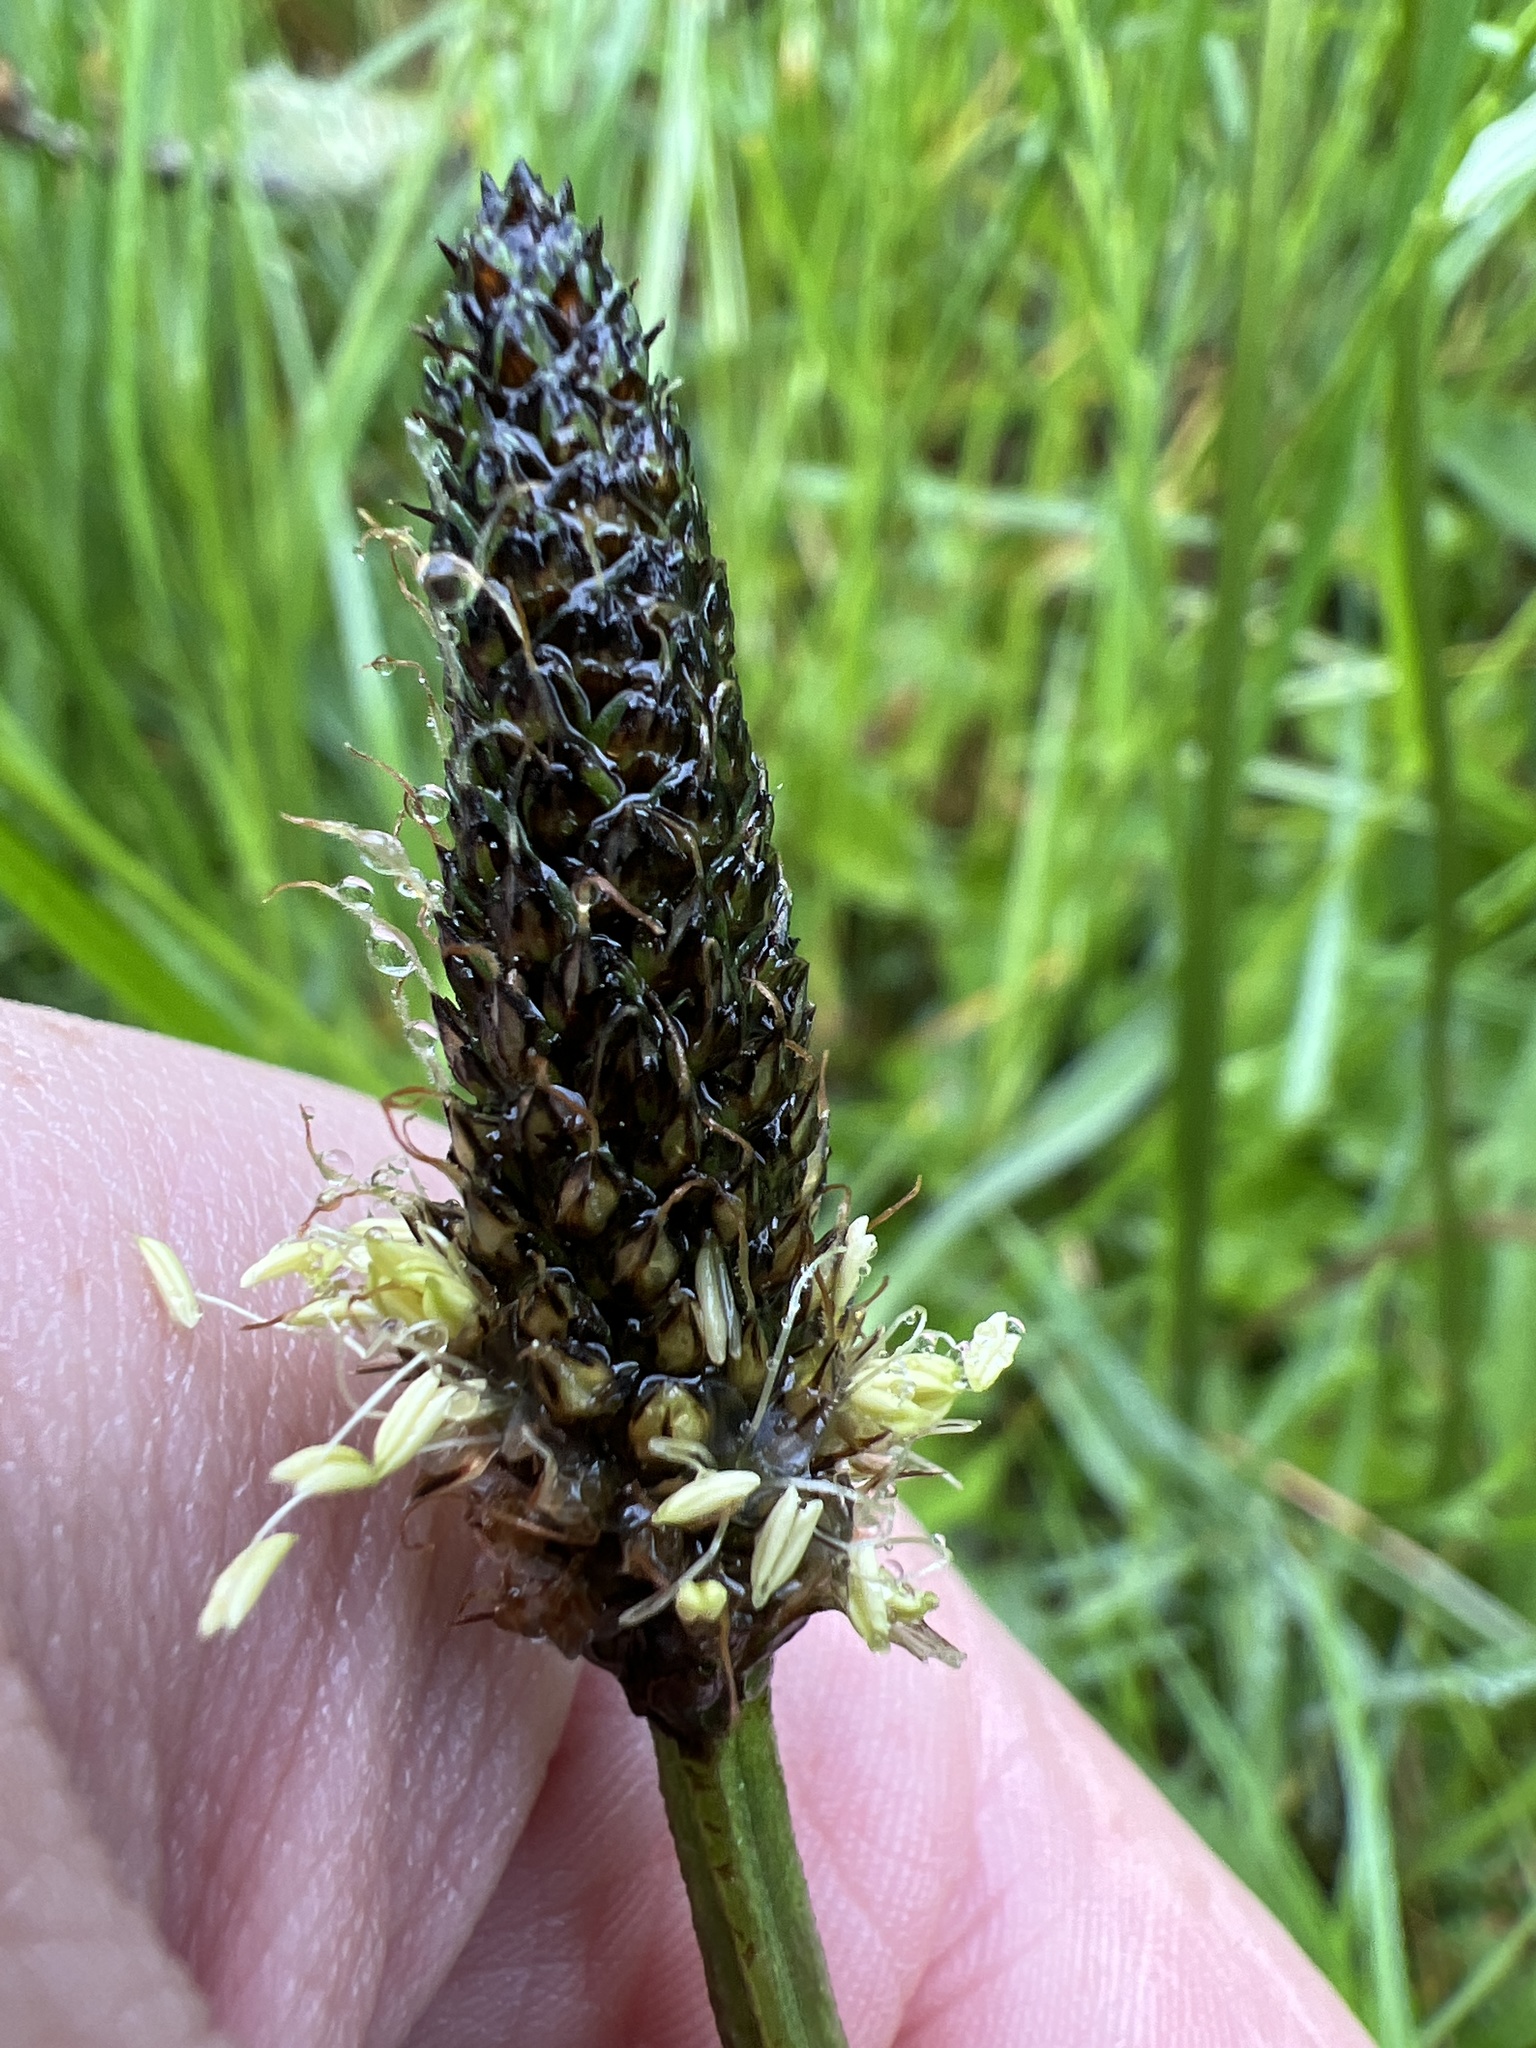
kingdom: Plantae
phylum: Tracheophyta
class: Magnoliopsida
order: Lamiales
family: Plantaginaceae
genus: Plantago
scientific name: Plantago lanceolata
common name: Ribwort plantain
